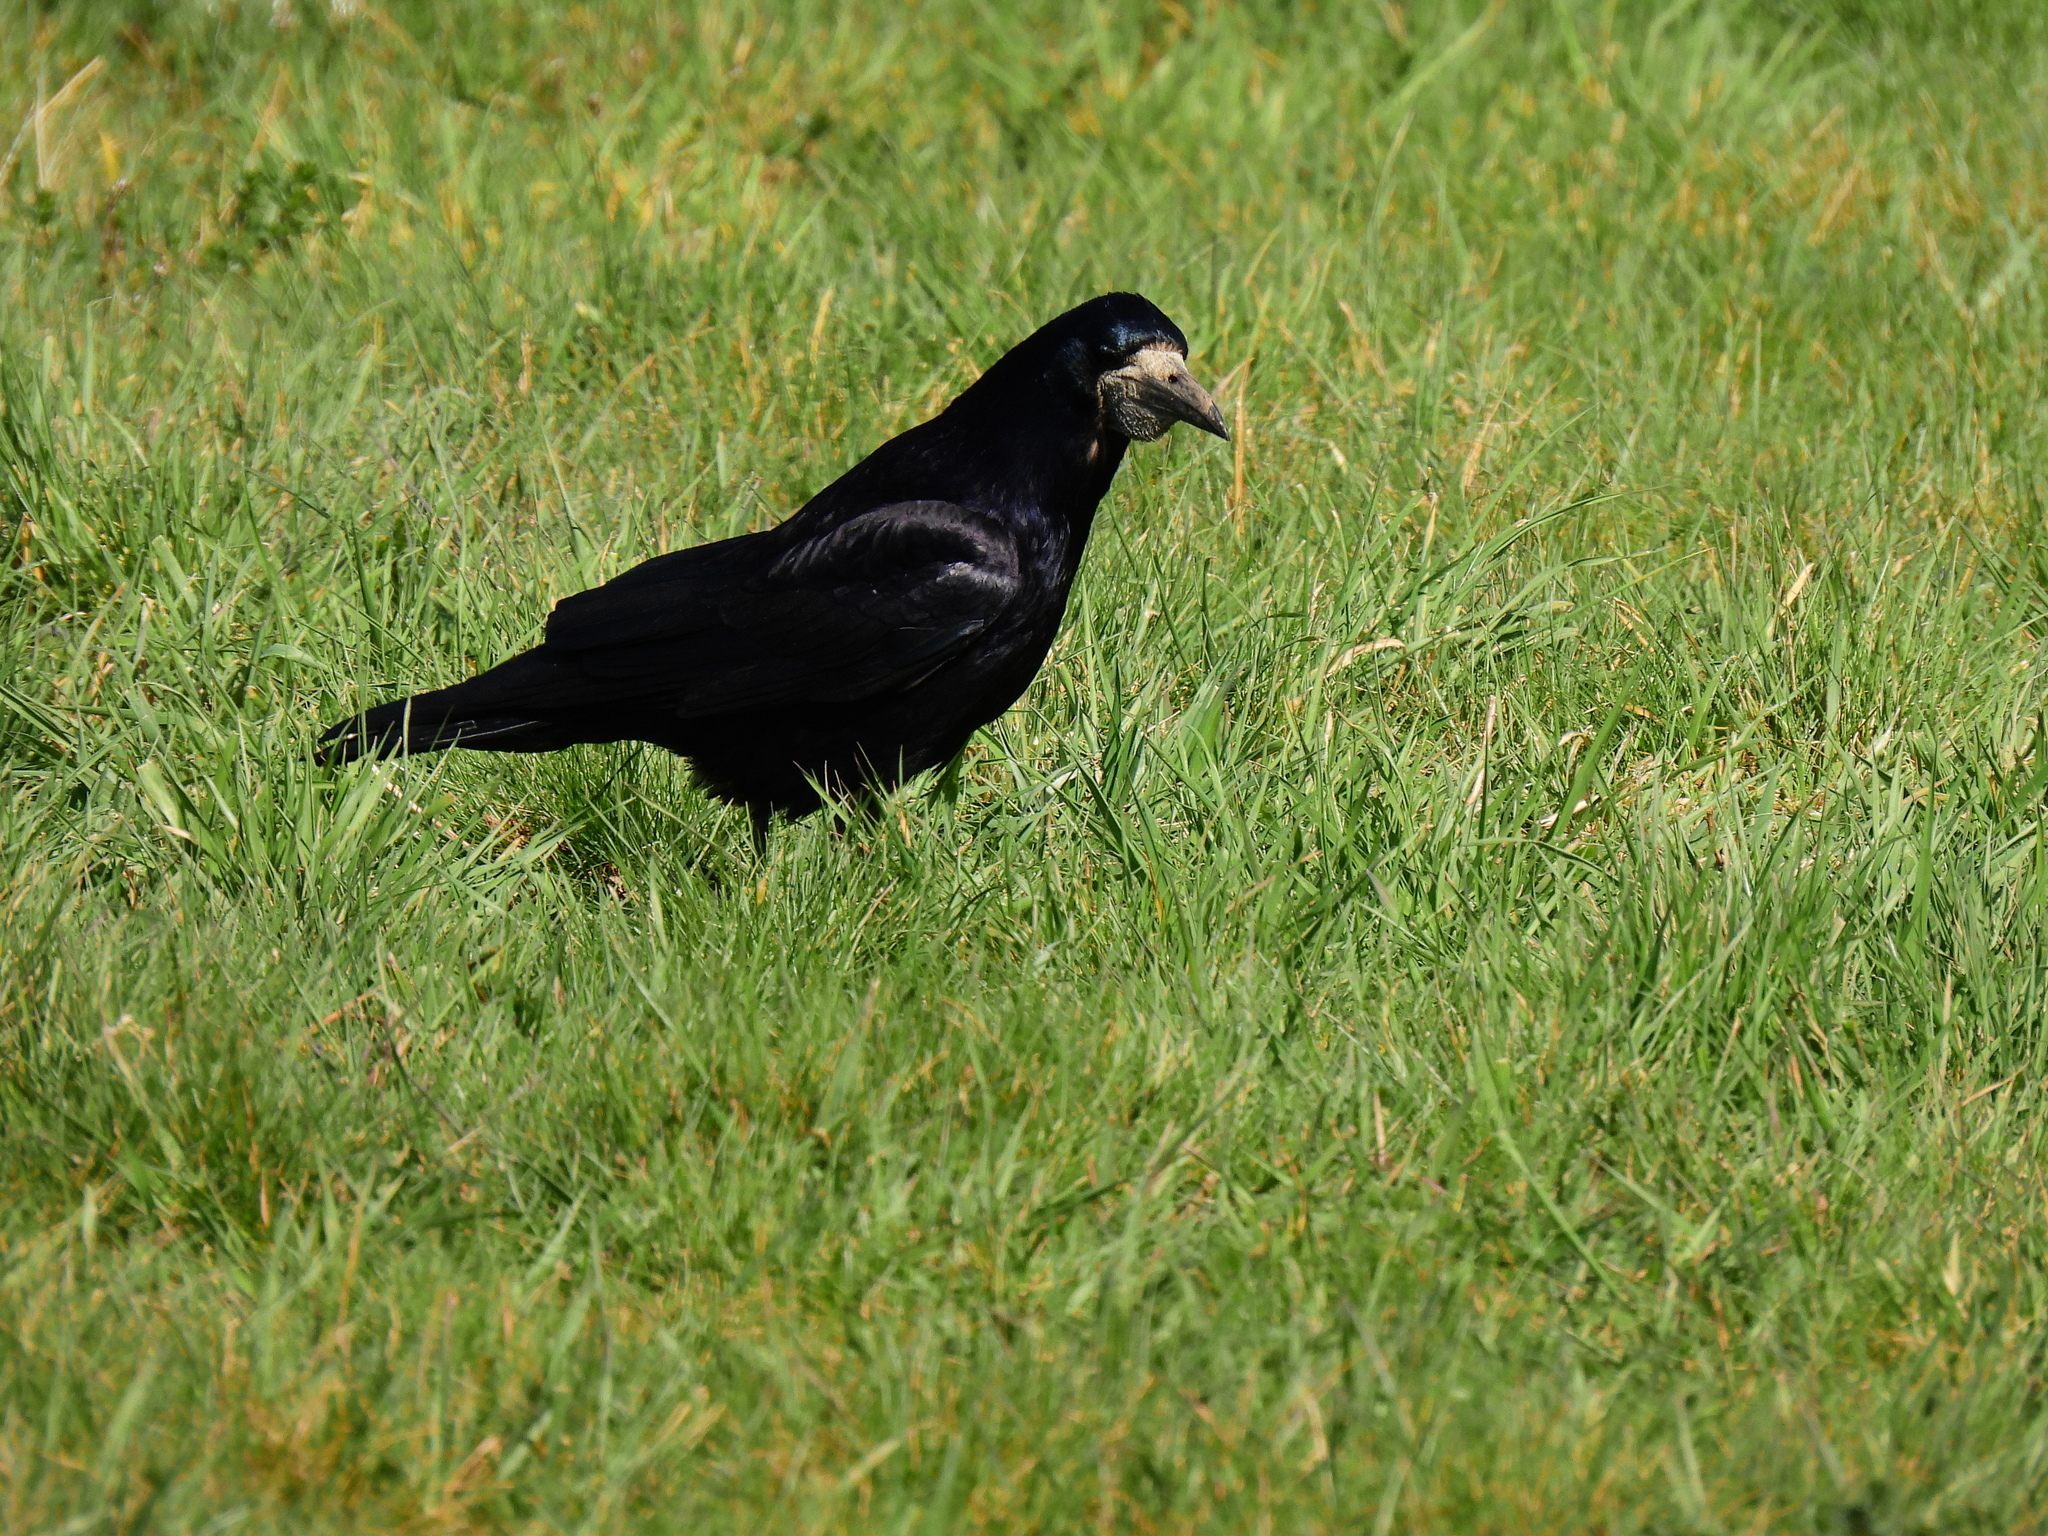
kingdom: Animalia
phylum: Chordata
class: Aves
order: Passeriformes
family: Corvidae
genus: Corvus
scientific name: Corvus frugilegus
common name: Rook
